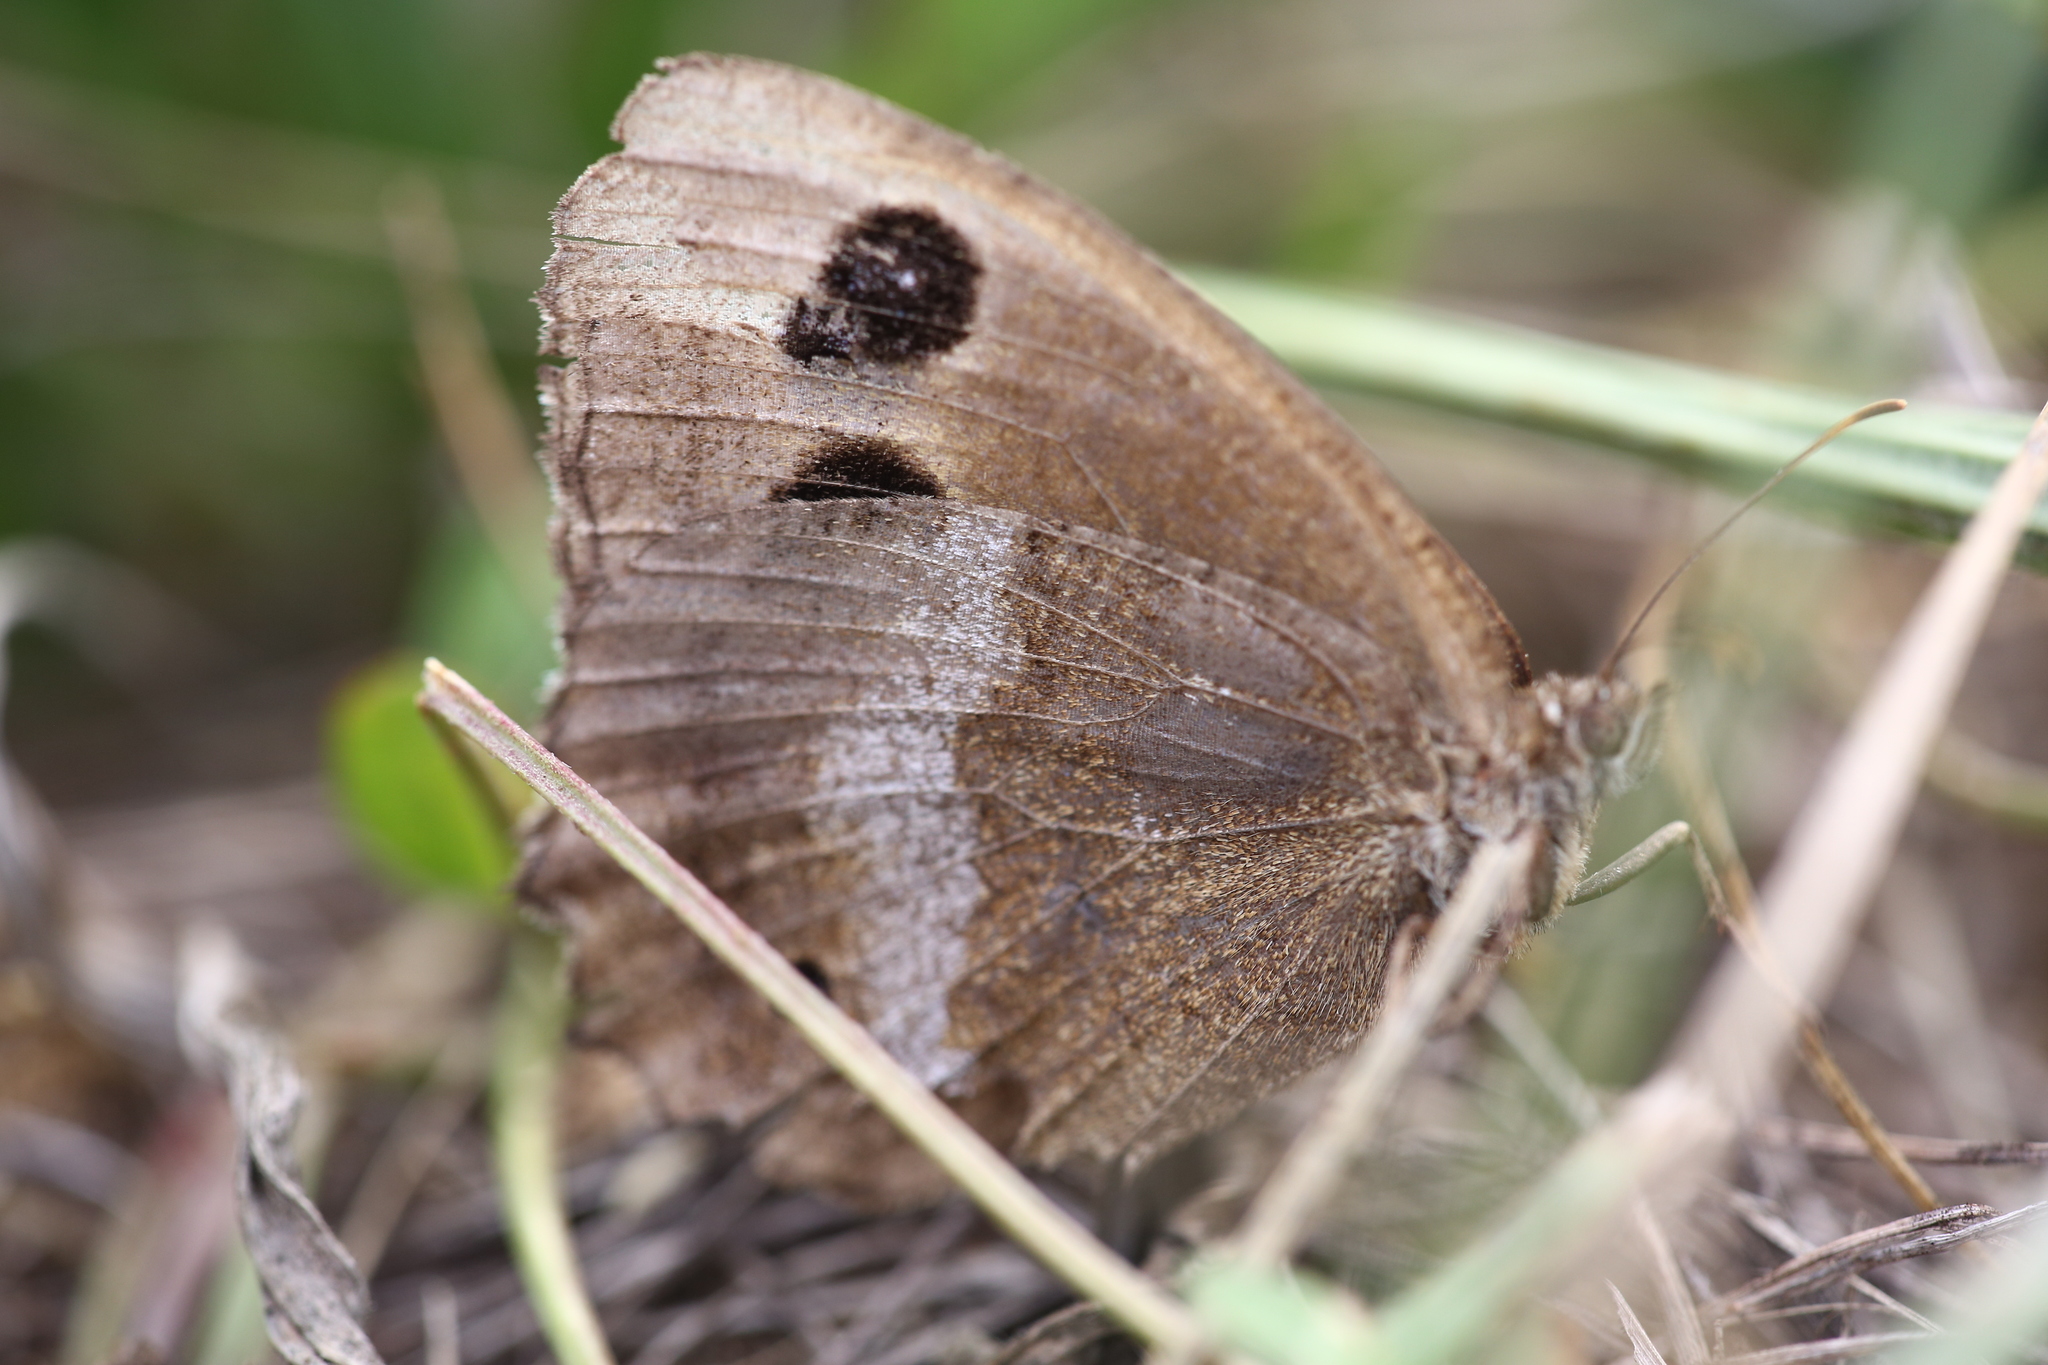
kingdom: Animalia
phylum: Arthropoda
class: Insecta
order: Lepidoptera
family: Nymphalidae
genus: Minois
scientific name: Minois dryas
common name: Dryad
